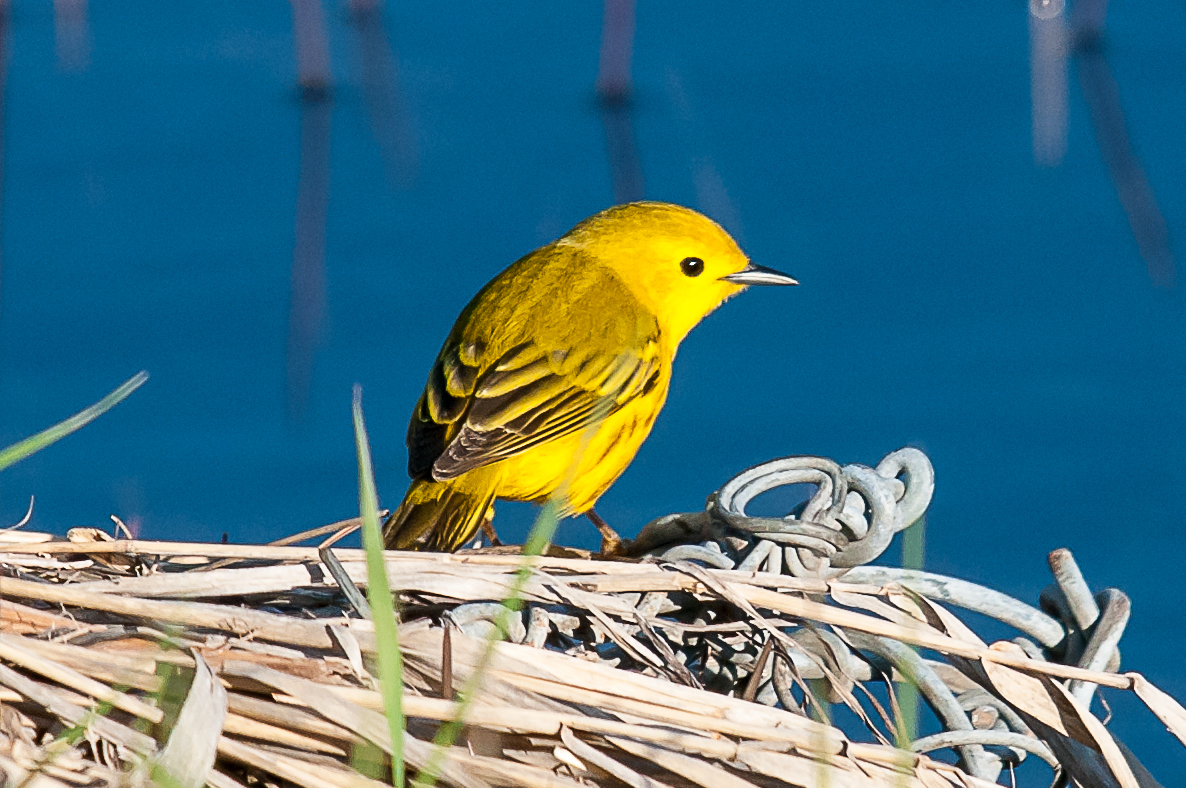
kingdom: Animalia
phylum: Chordata
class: Aves
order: Passeriformes
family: Parulidae
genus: Setophaga
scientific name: Setophaga petechia
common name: Yellow warbler
